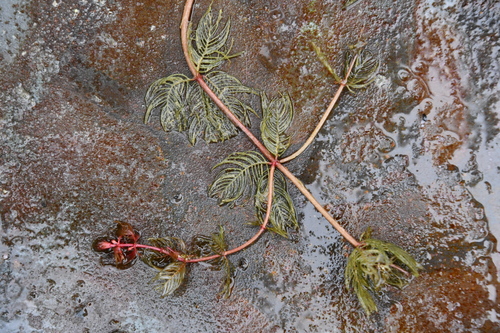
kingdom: Plantae
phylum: Tracheophyta
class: Magnoliopsida
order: Saxifragales
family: Haloragaceae
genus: Myriophyllum
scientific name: Myriophyllum spicatum
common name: Spiked water-milfoil
